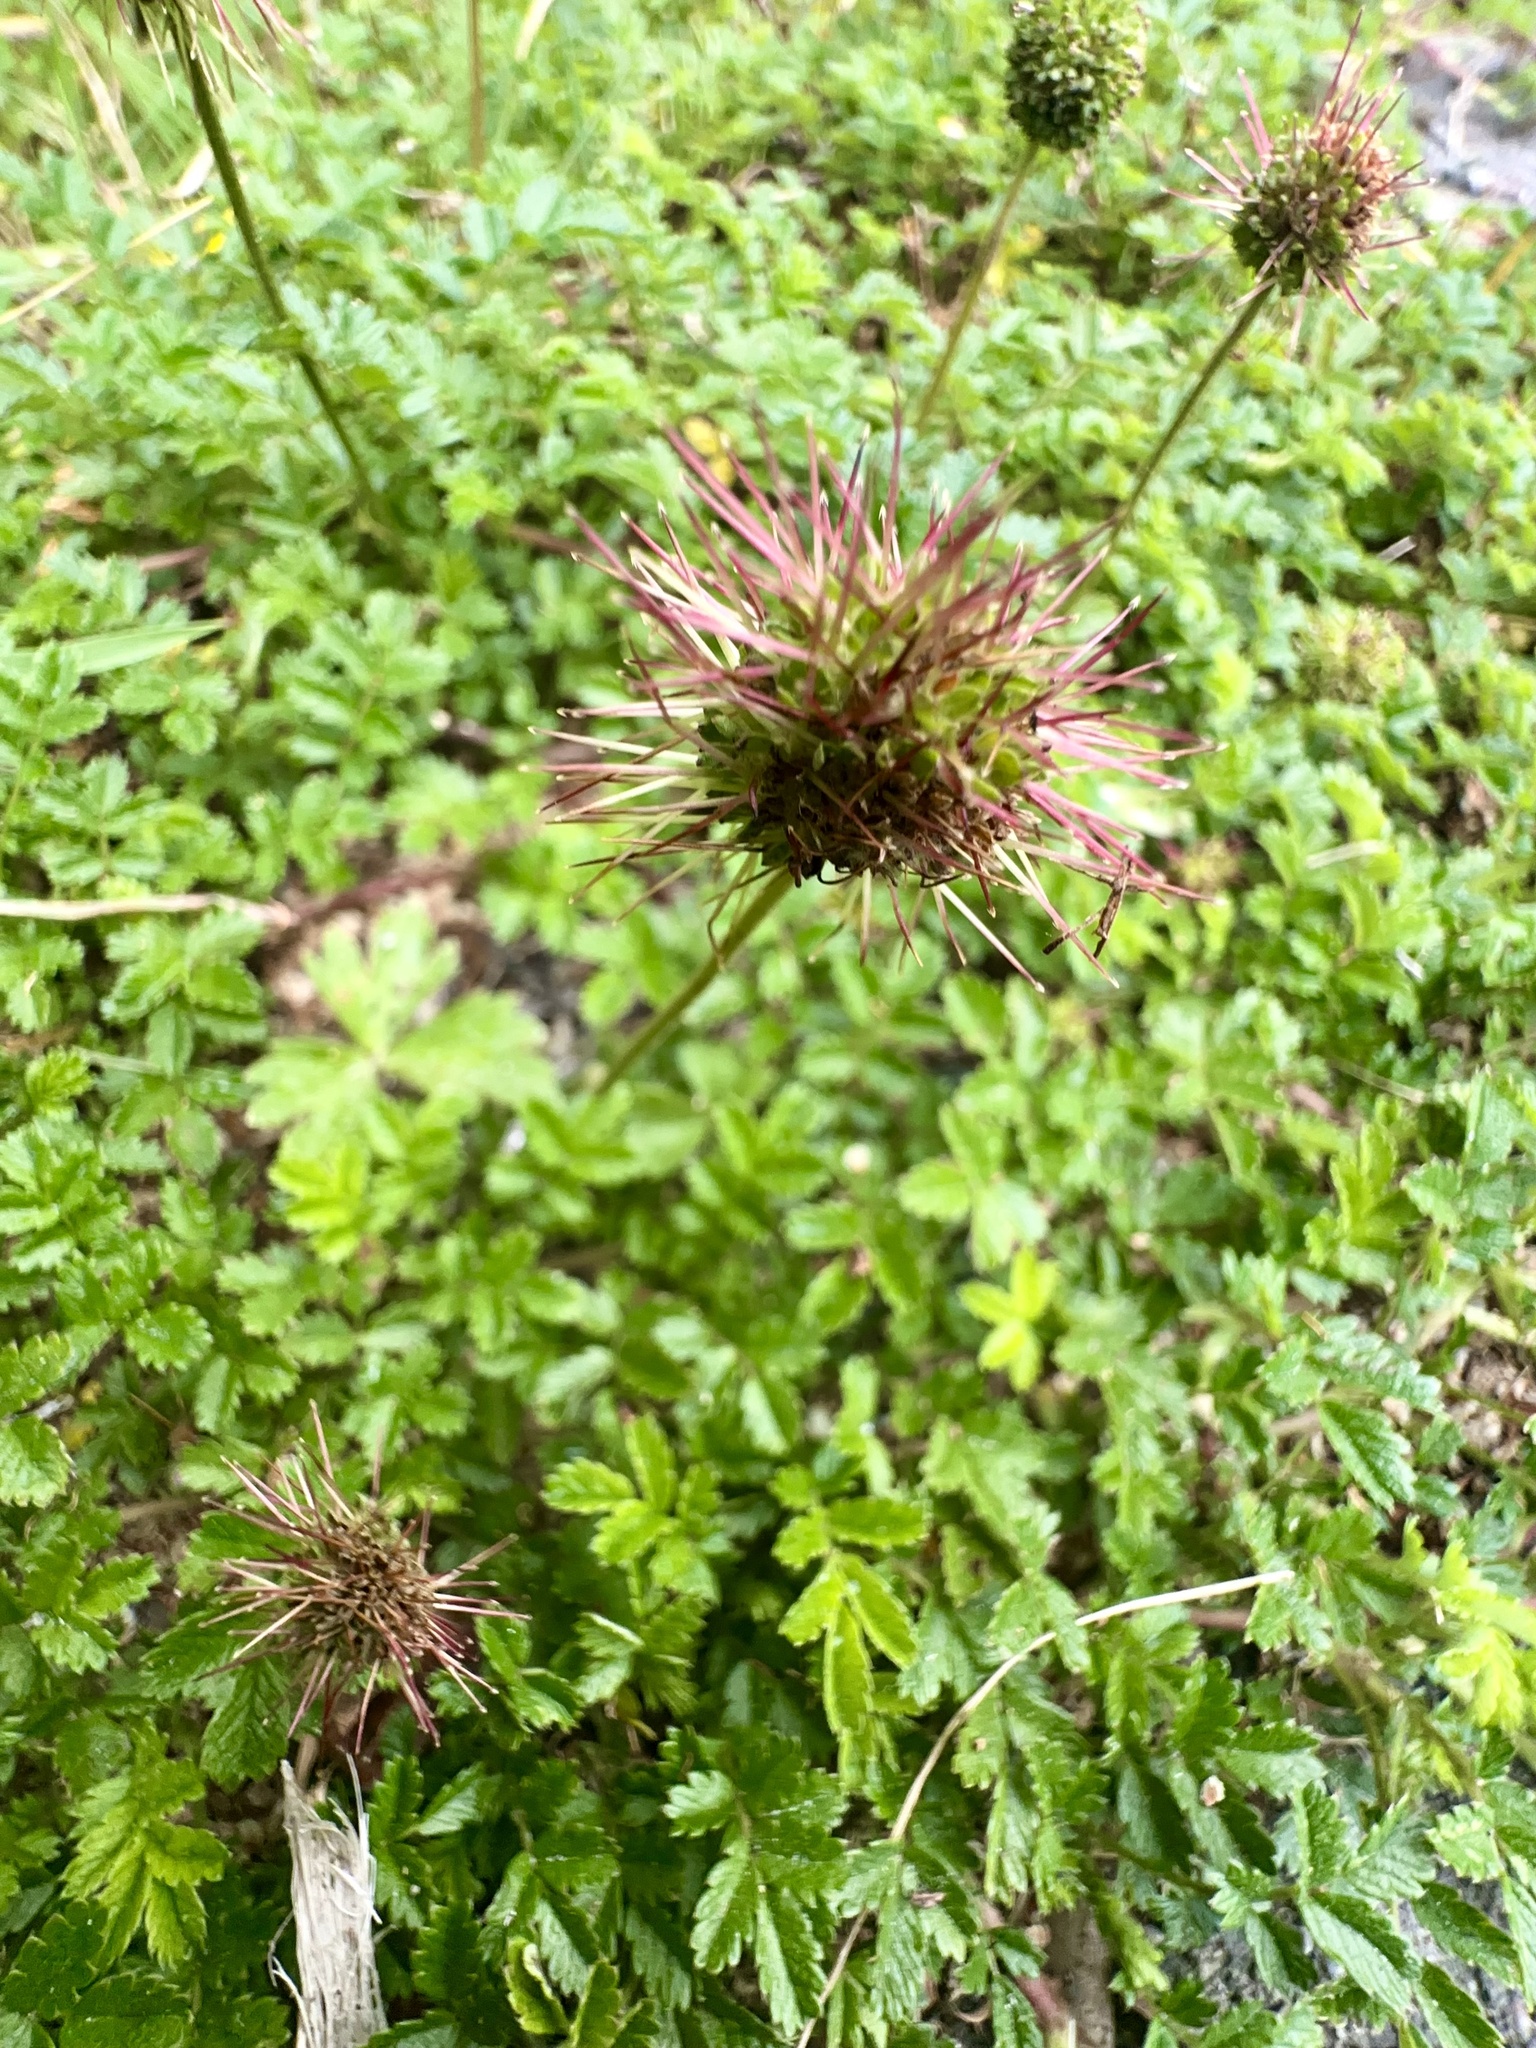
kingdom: Plantae
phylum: Tracheophyta
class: Magnoliopsida
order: Rosales
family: Rosaceae
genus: Acaena
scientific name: Acaena novae-zelandiae
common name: Pirri-pirri-bur
